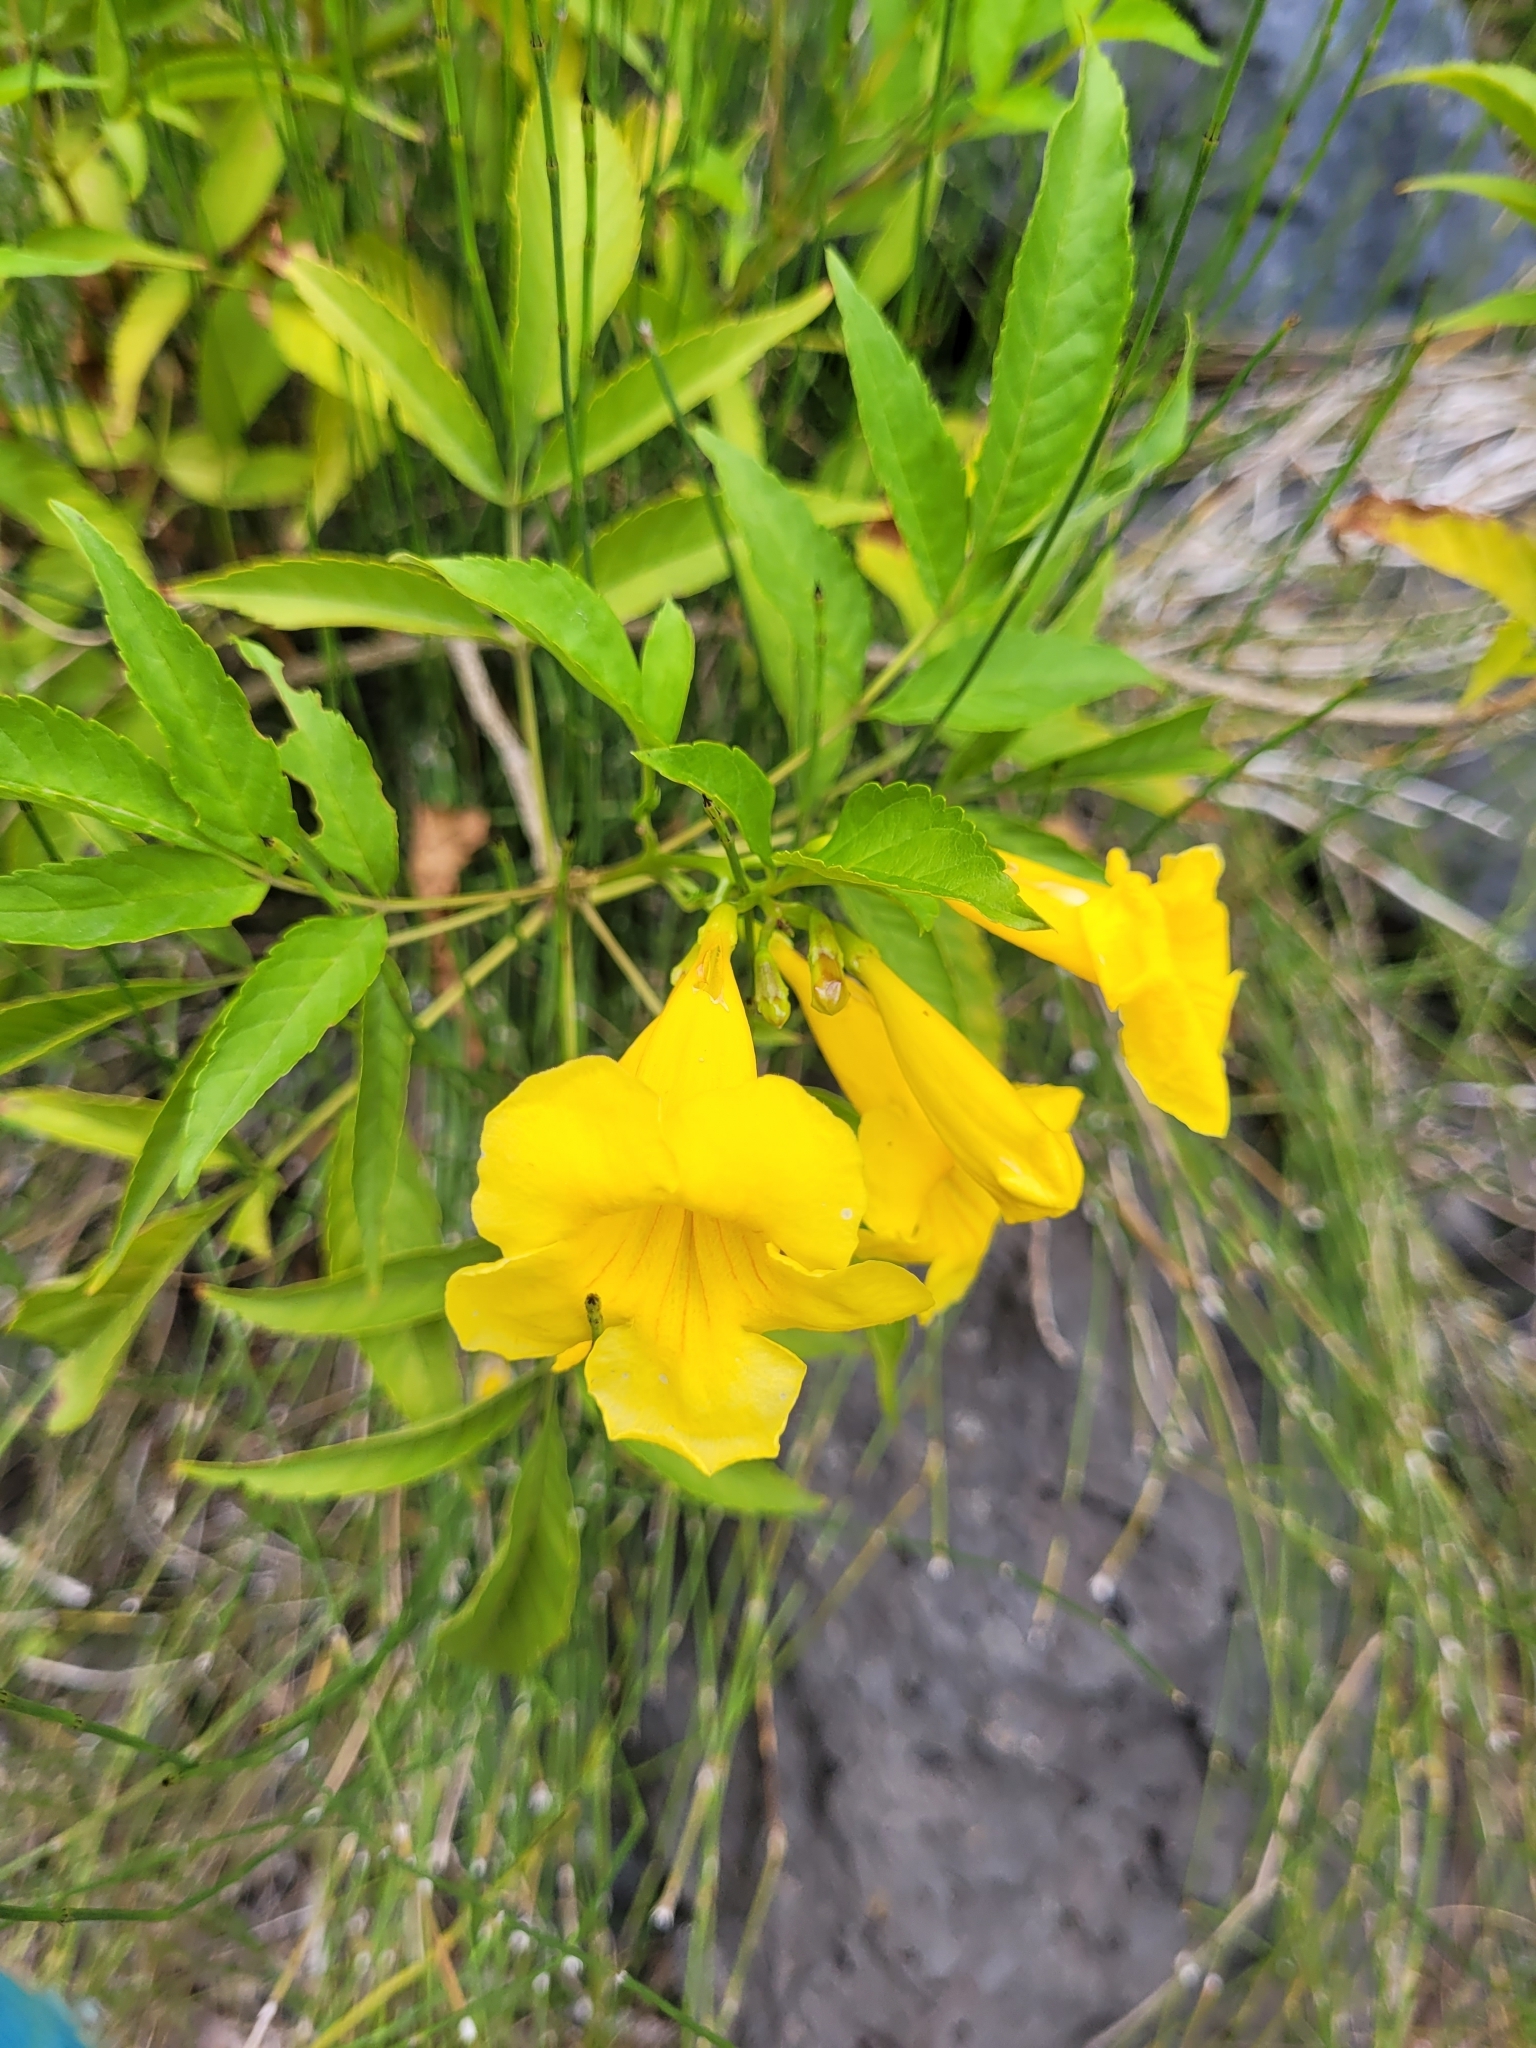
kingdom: Plantae
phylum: Tracheophyta
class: Magnoliopsida
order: Lamiales
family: Bignoniaceae
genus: Tecoma
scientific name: Tecoma stans
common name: Yellow trumpetbush
